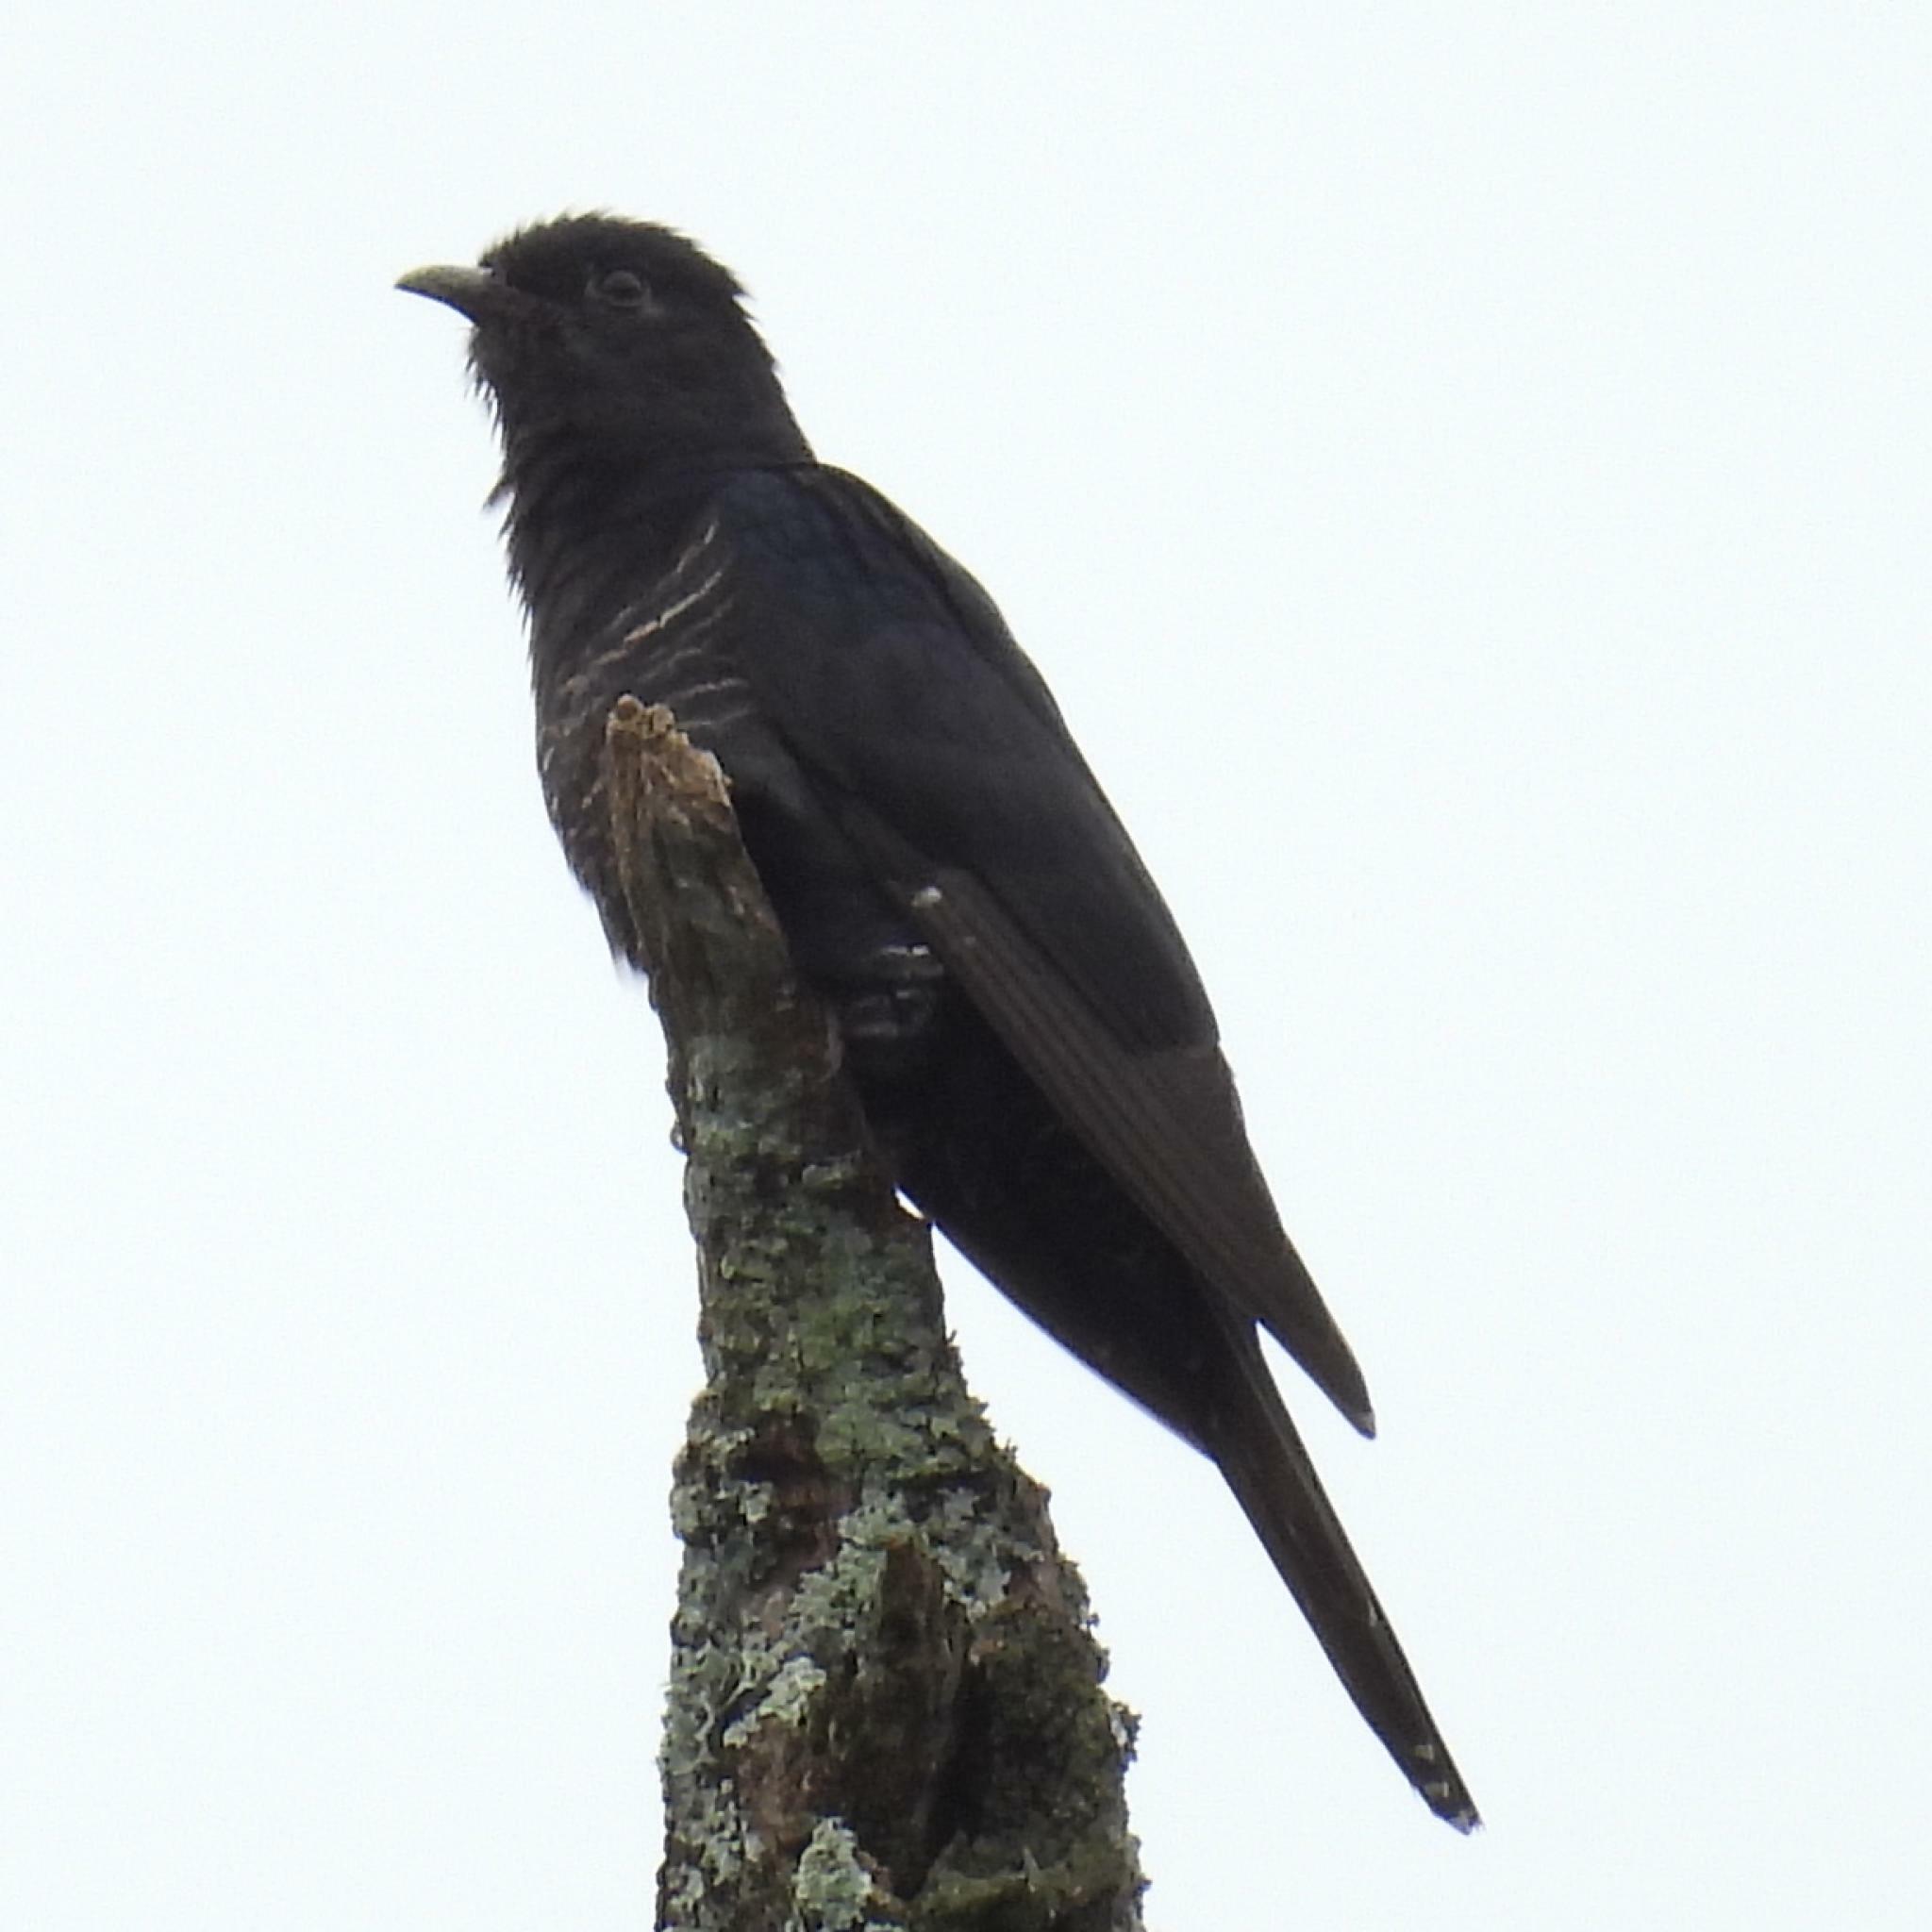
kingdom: Animalia
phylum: Chordata
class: Aves
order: Cuculiformes
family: Cuculidae
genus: Cuculus
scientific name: Cuculus clamosus
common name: Black cuckoo
